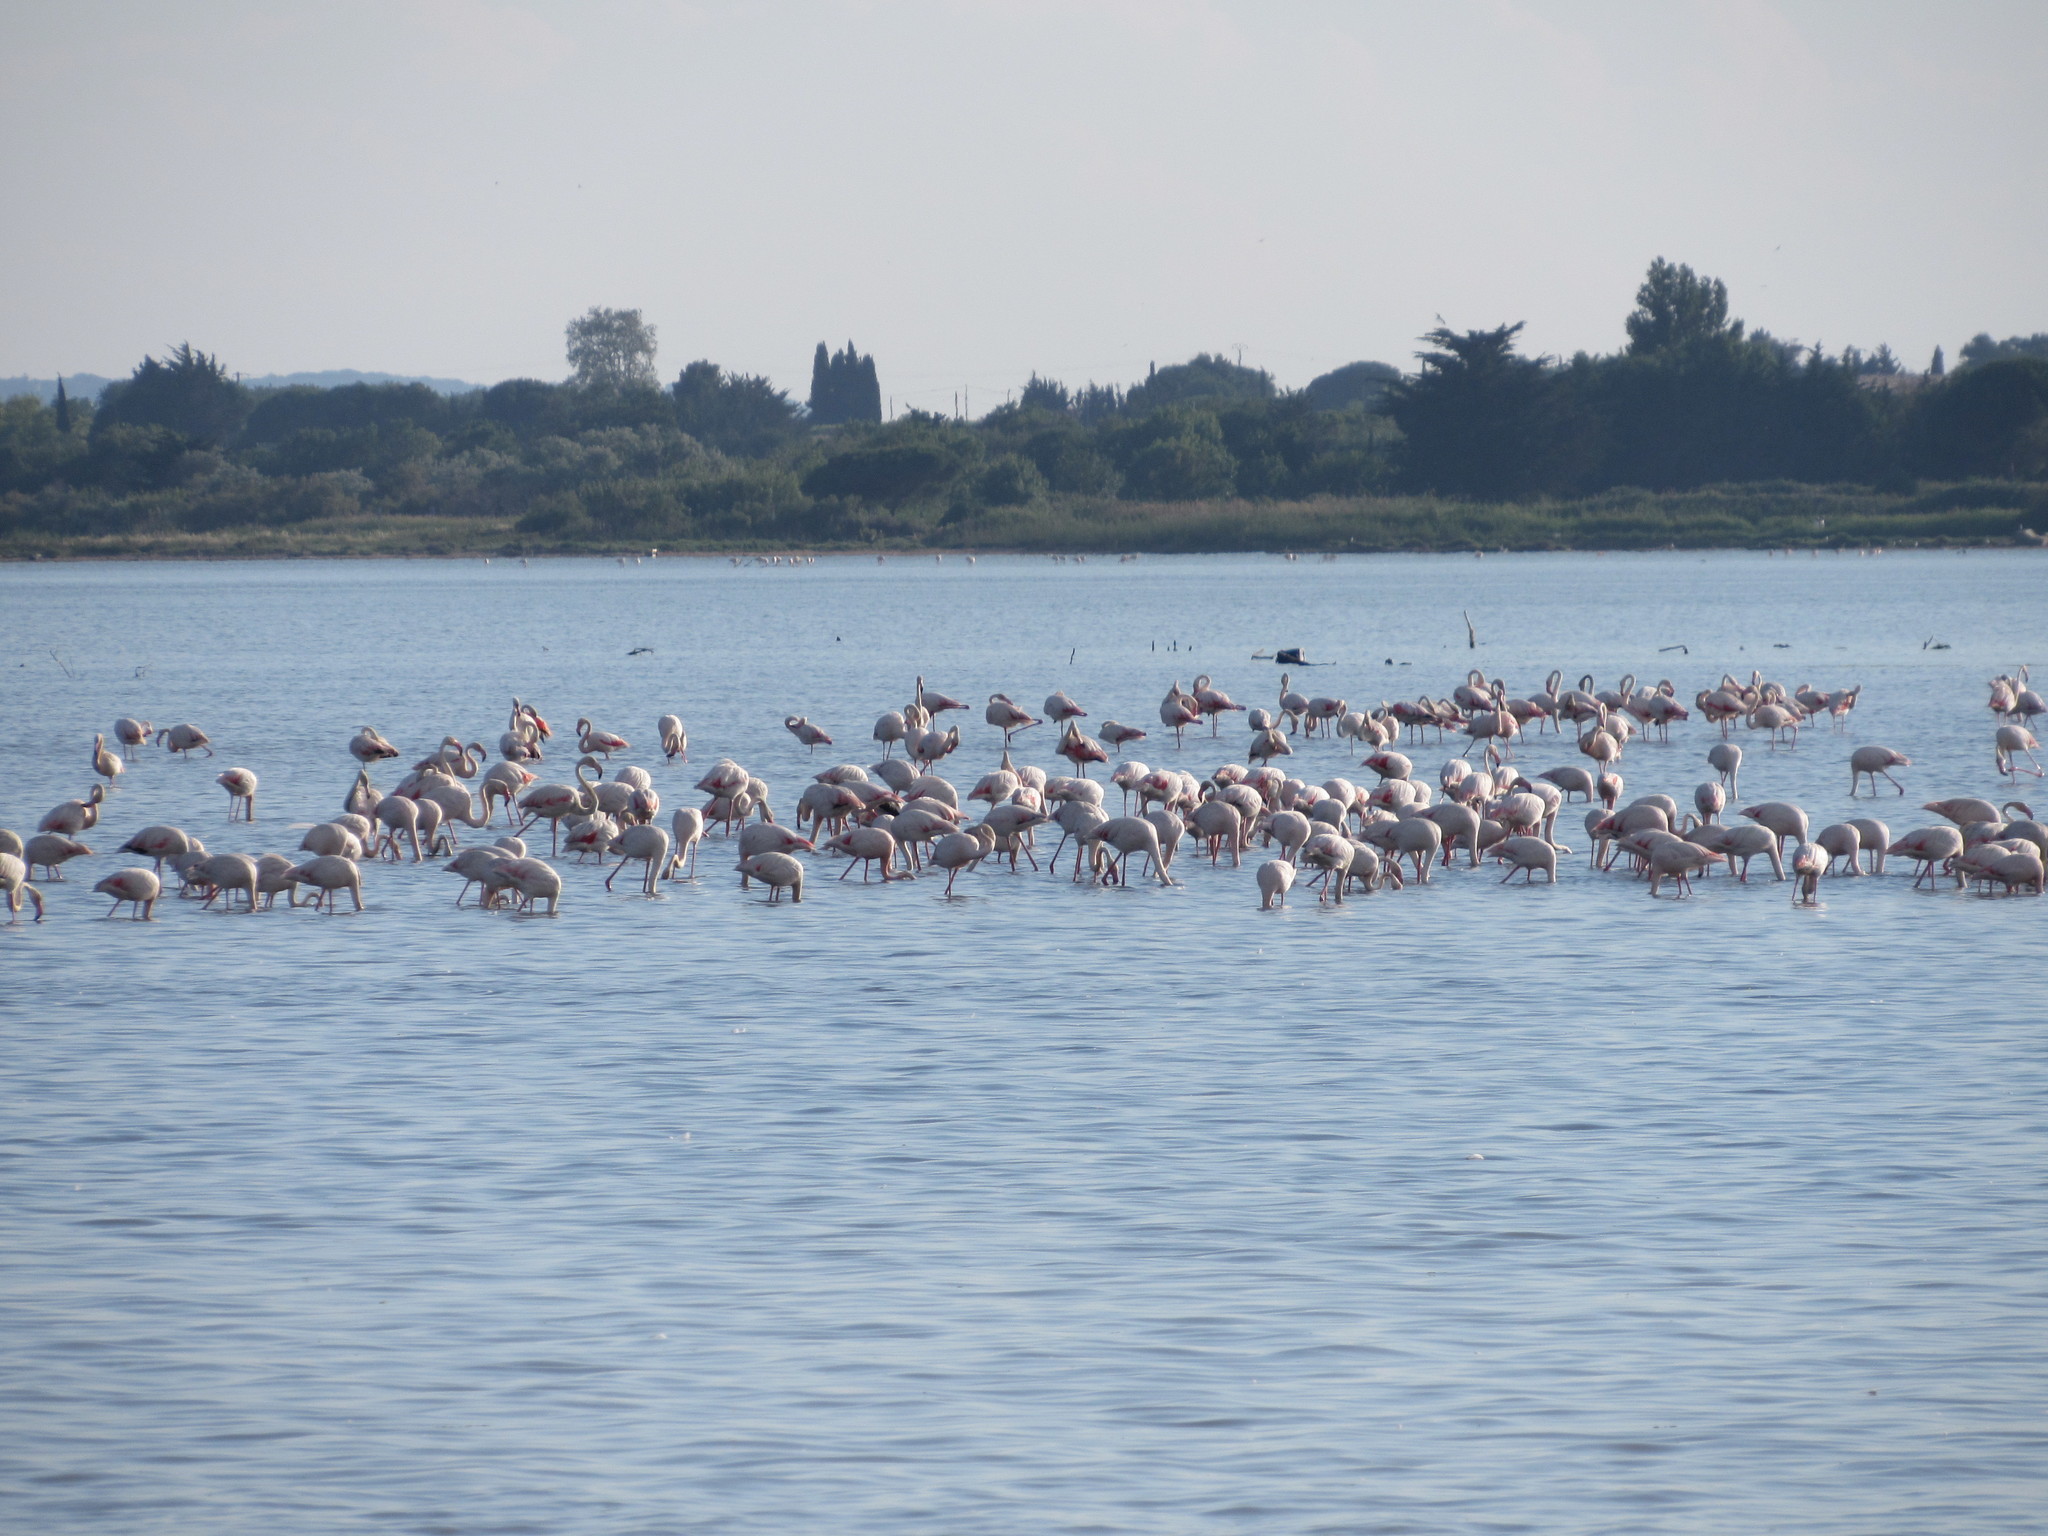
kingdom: Animalia
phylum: Chordata
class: Aves
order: Phoenicopteriformes
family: Phoenicopteridae
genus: Phoenicopterus
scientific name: Phoenicopterus roseus
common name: Greater flamingo
